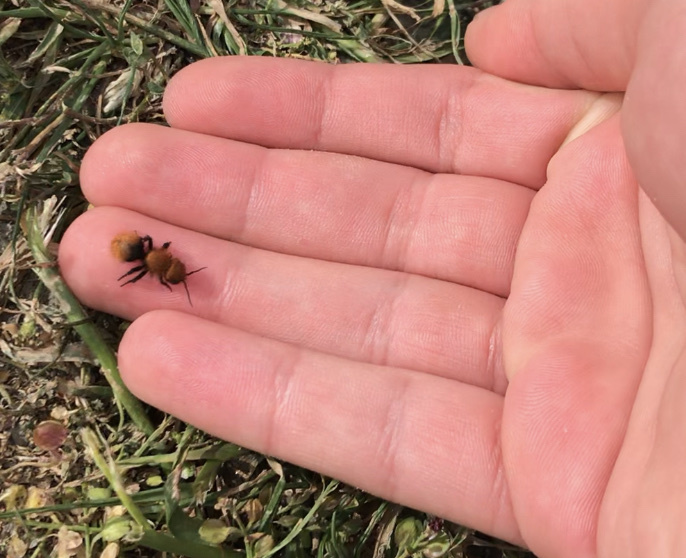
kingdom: Animalia
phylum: Arthropoda
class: Insecta
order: Hymenoptera
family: Mutillidae
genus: Dasymutilla
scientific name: Dasymutilla
